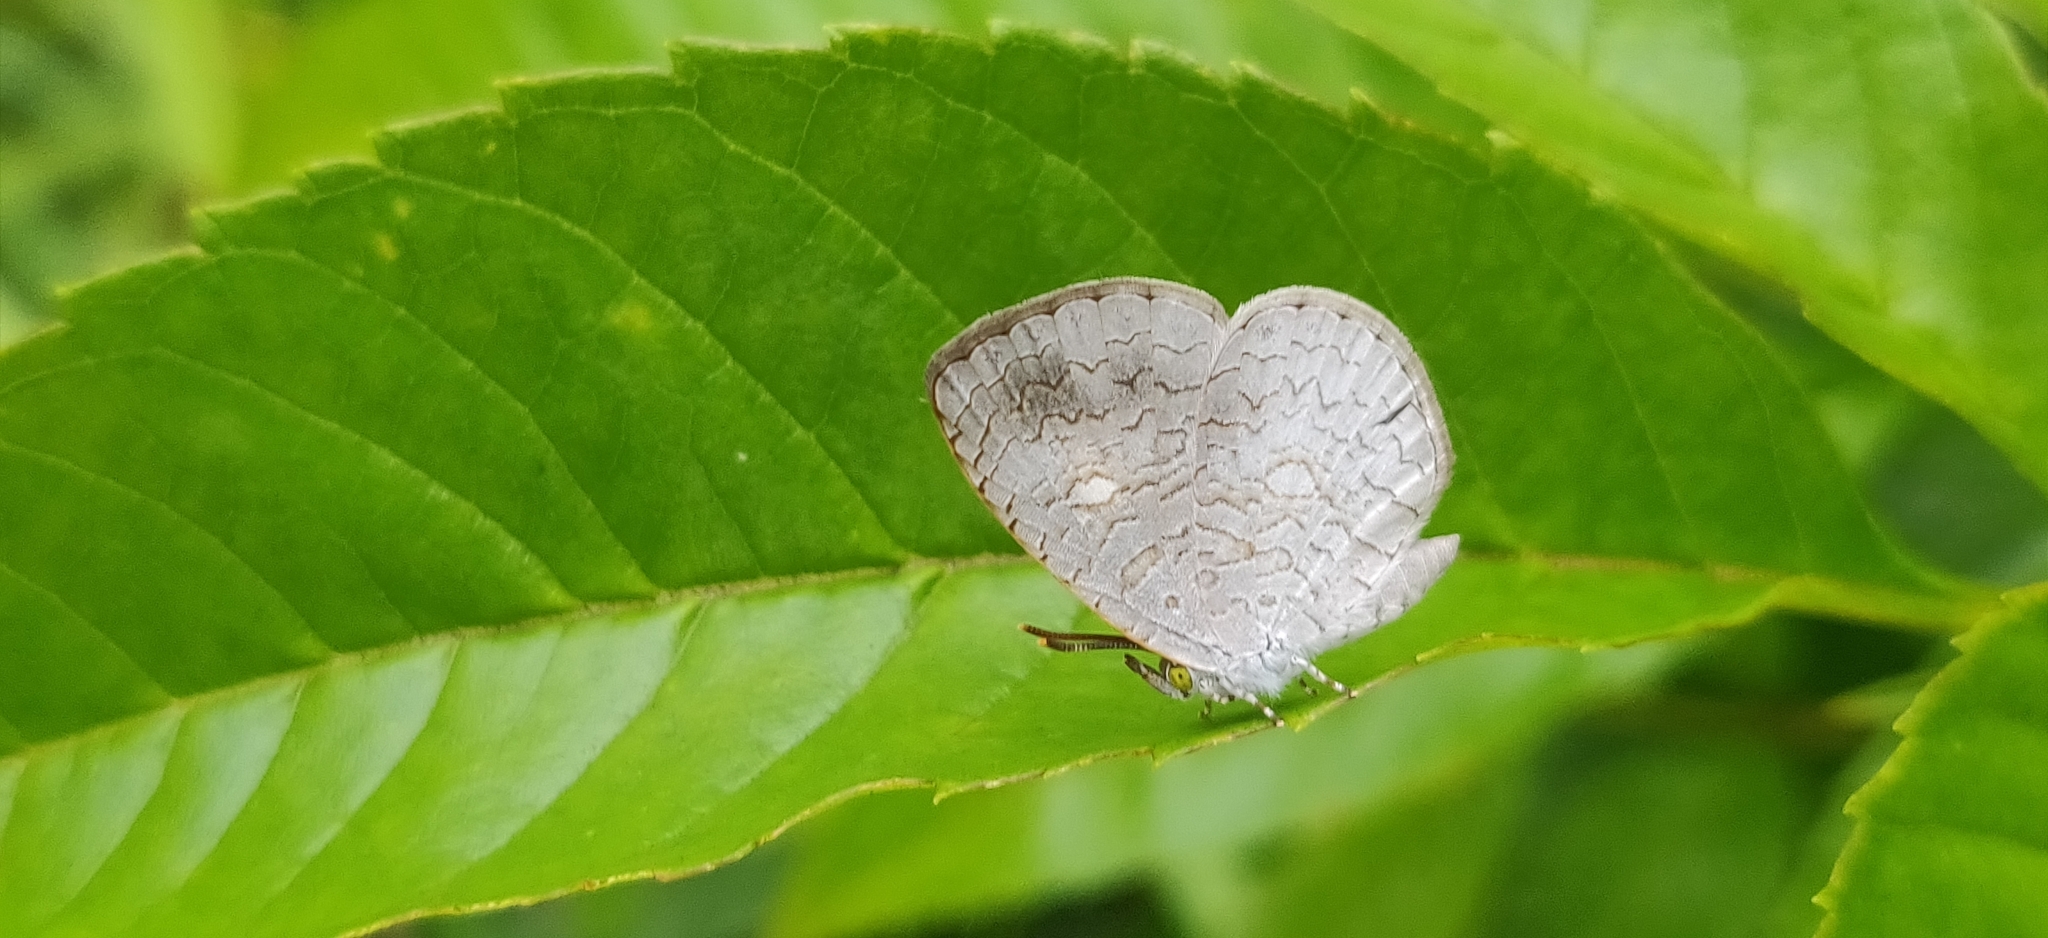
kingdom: Animalia
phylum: Arthropoda
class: Insecta
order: Lepidoptera
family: Lycaenidae
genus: Spalgis
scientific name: Spalgis epius
